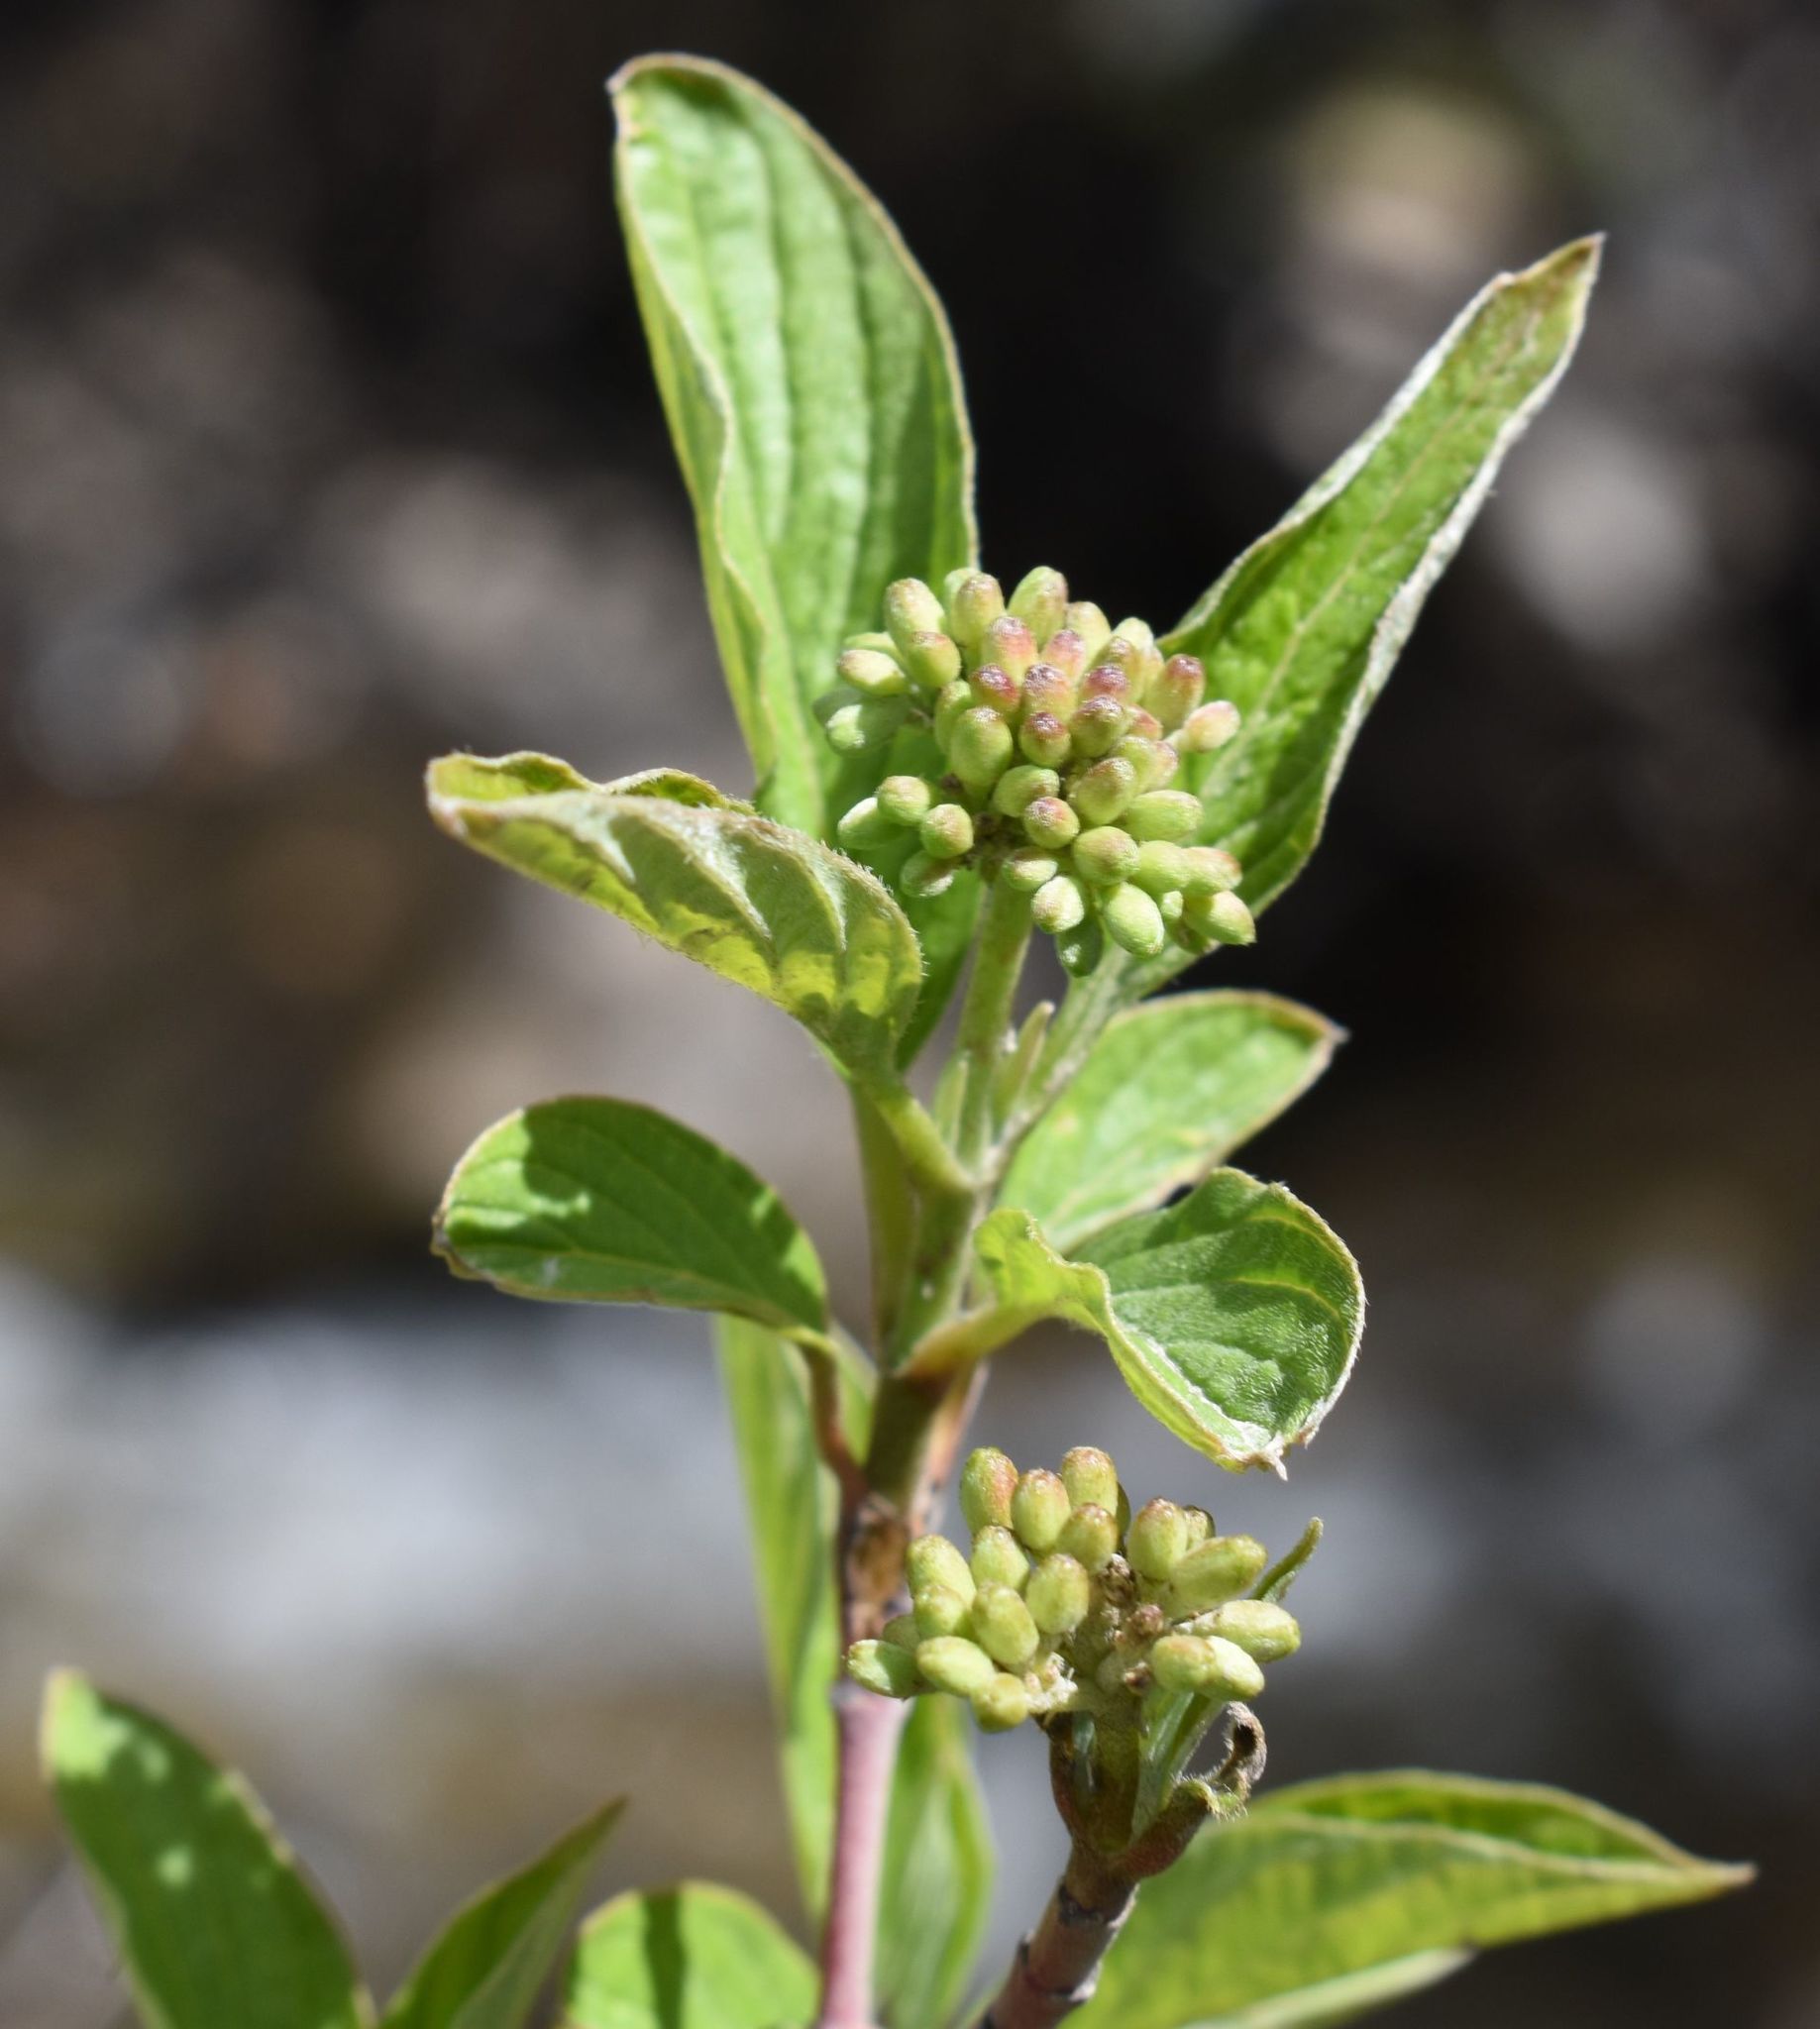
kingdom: Plantae
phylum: Tracheophyta
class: Magnoliopsida
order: Cornales
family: Cornaceae
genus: Cornus
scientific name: Cornus sericea
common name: Red-osier dogwood
